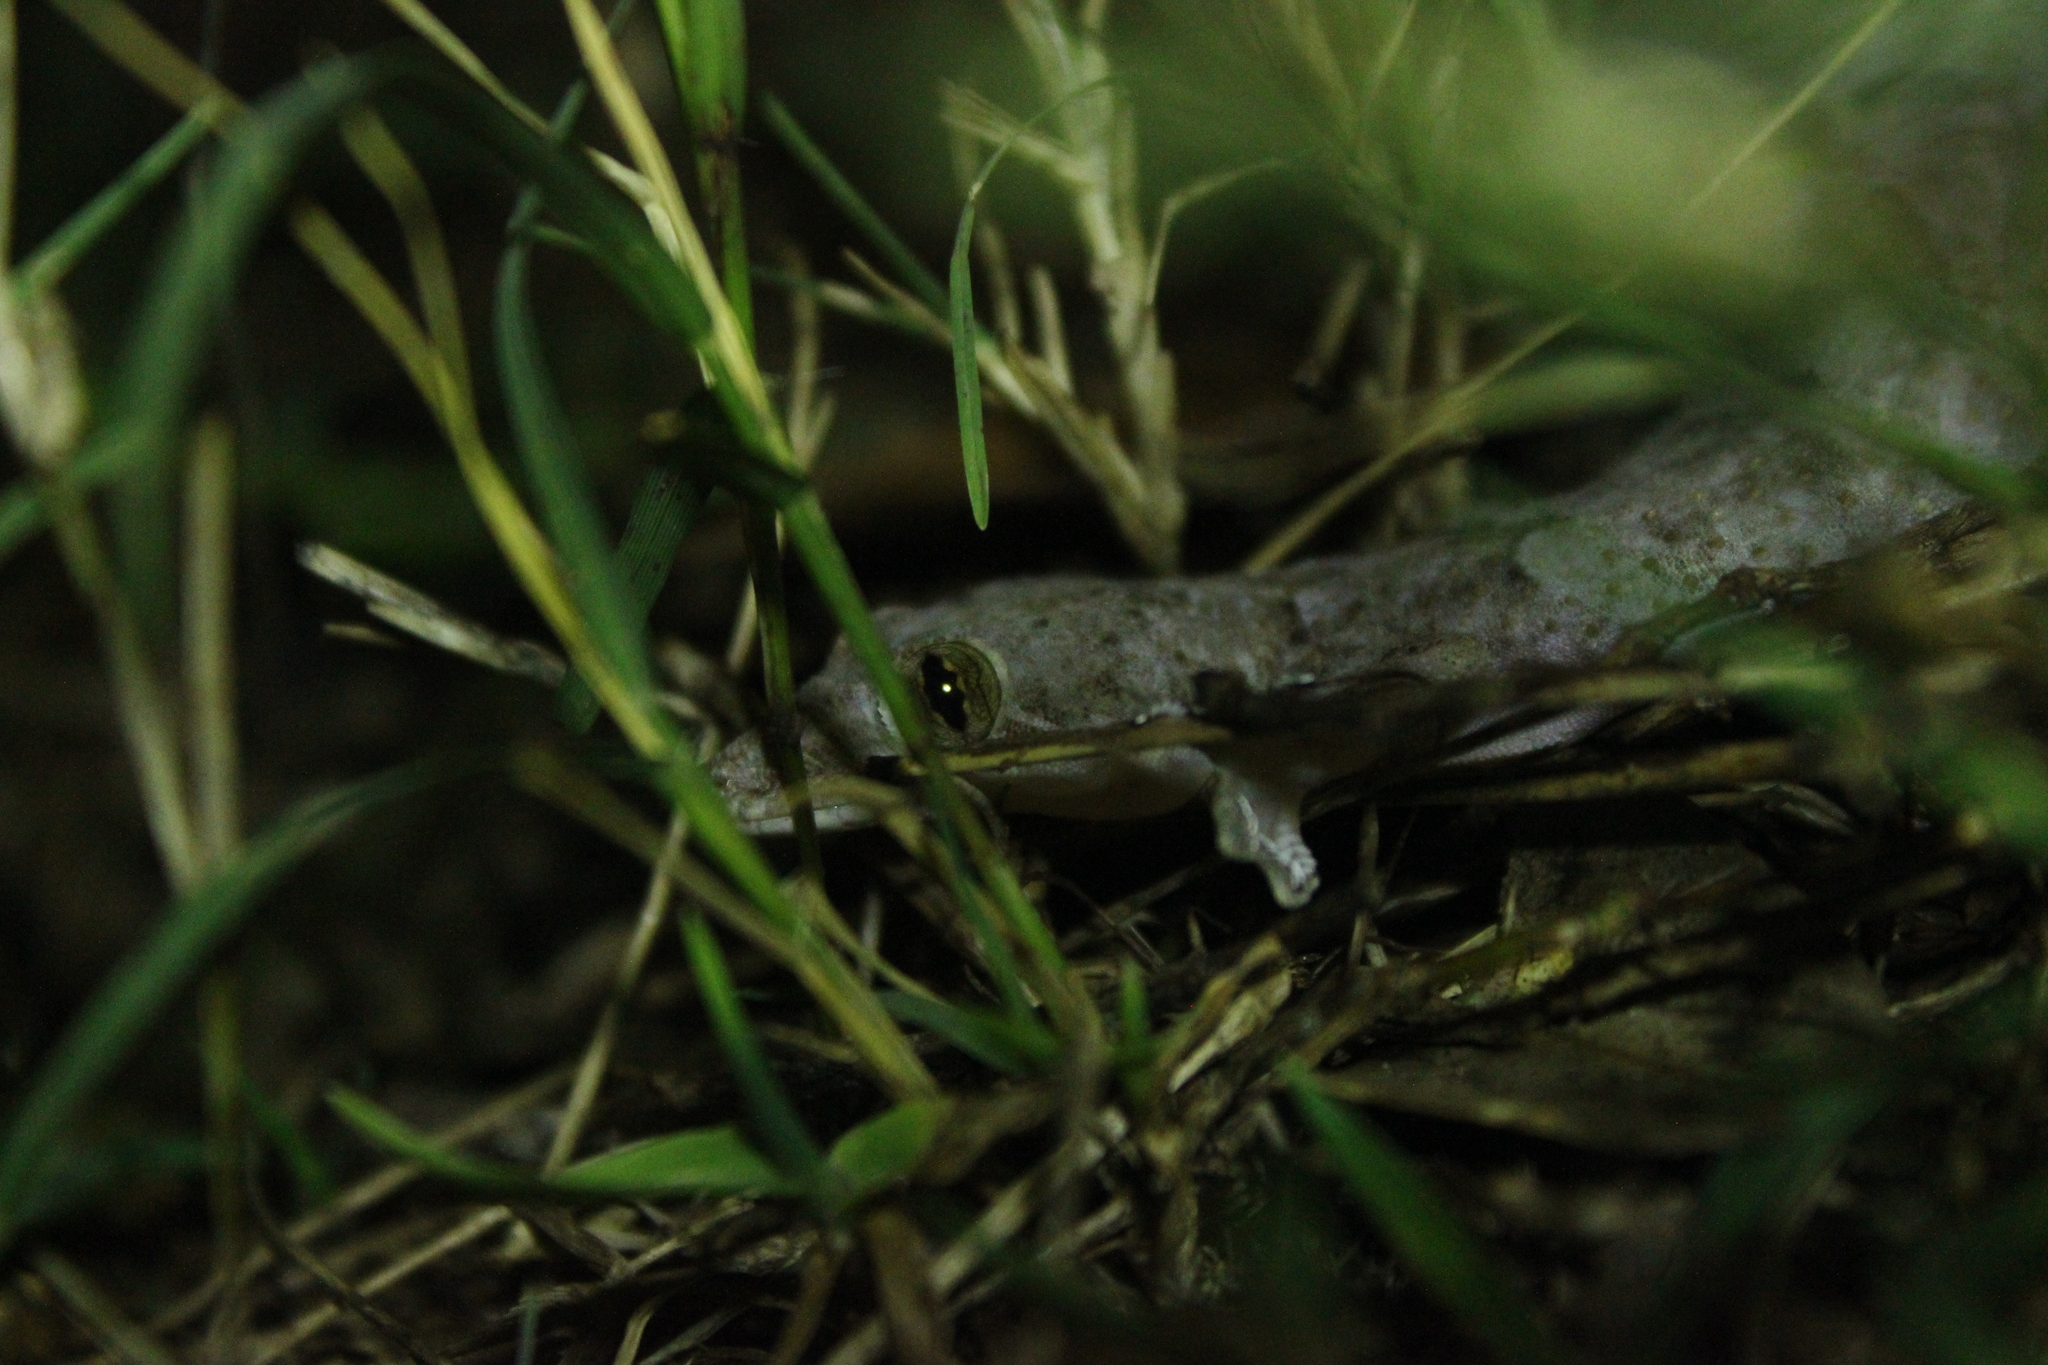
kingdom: Animalia
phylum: Chordata
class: Squamata
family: Gekkonidae
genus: Hemidactylus
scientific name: Hemidactylus mabouia
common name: House gecko
